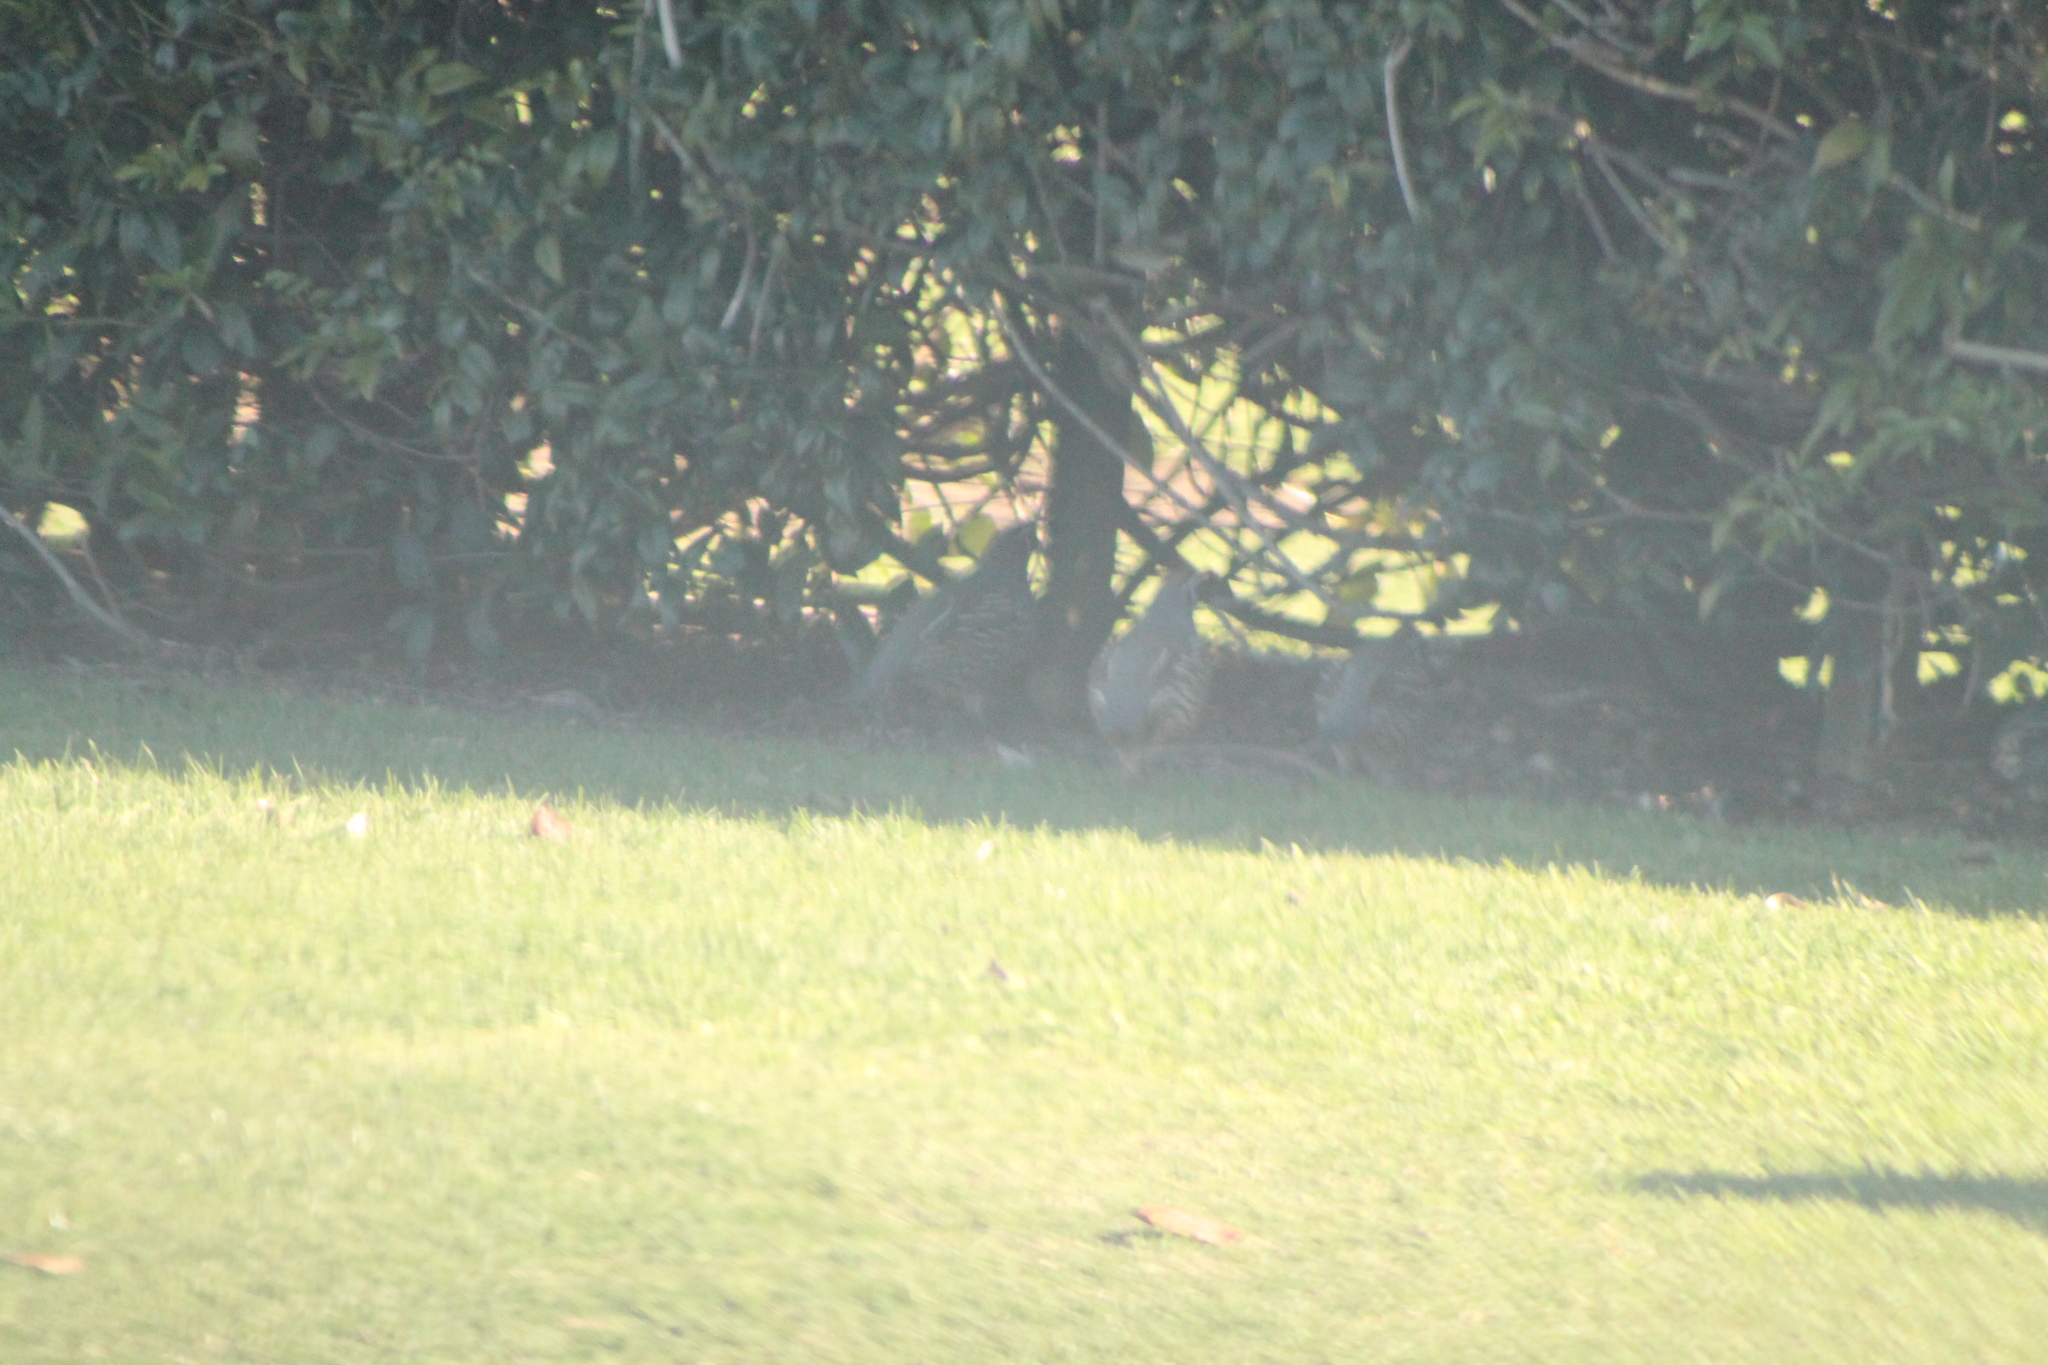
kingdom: Animalia
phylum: Chordata
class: Aves
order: Galliformes
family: Odontophoridae
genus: Callipepla
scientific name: Callipepla californica
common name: California quail
